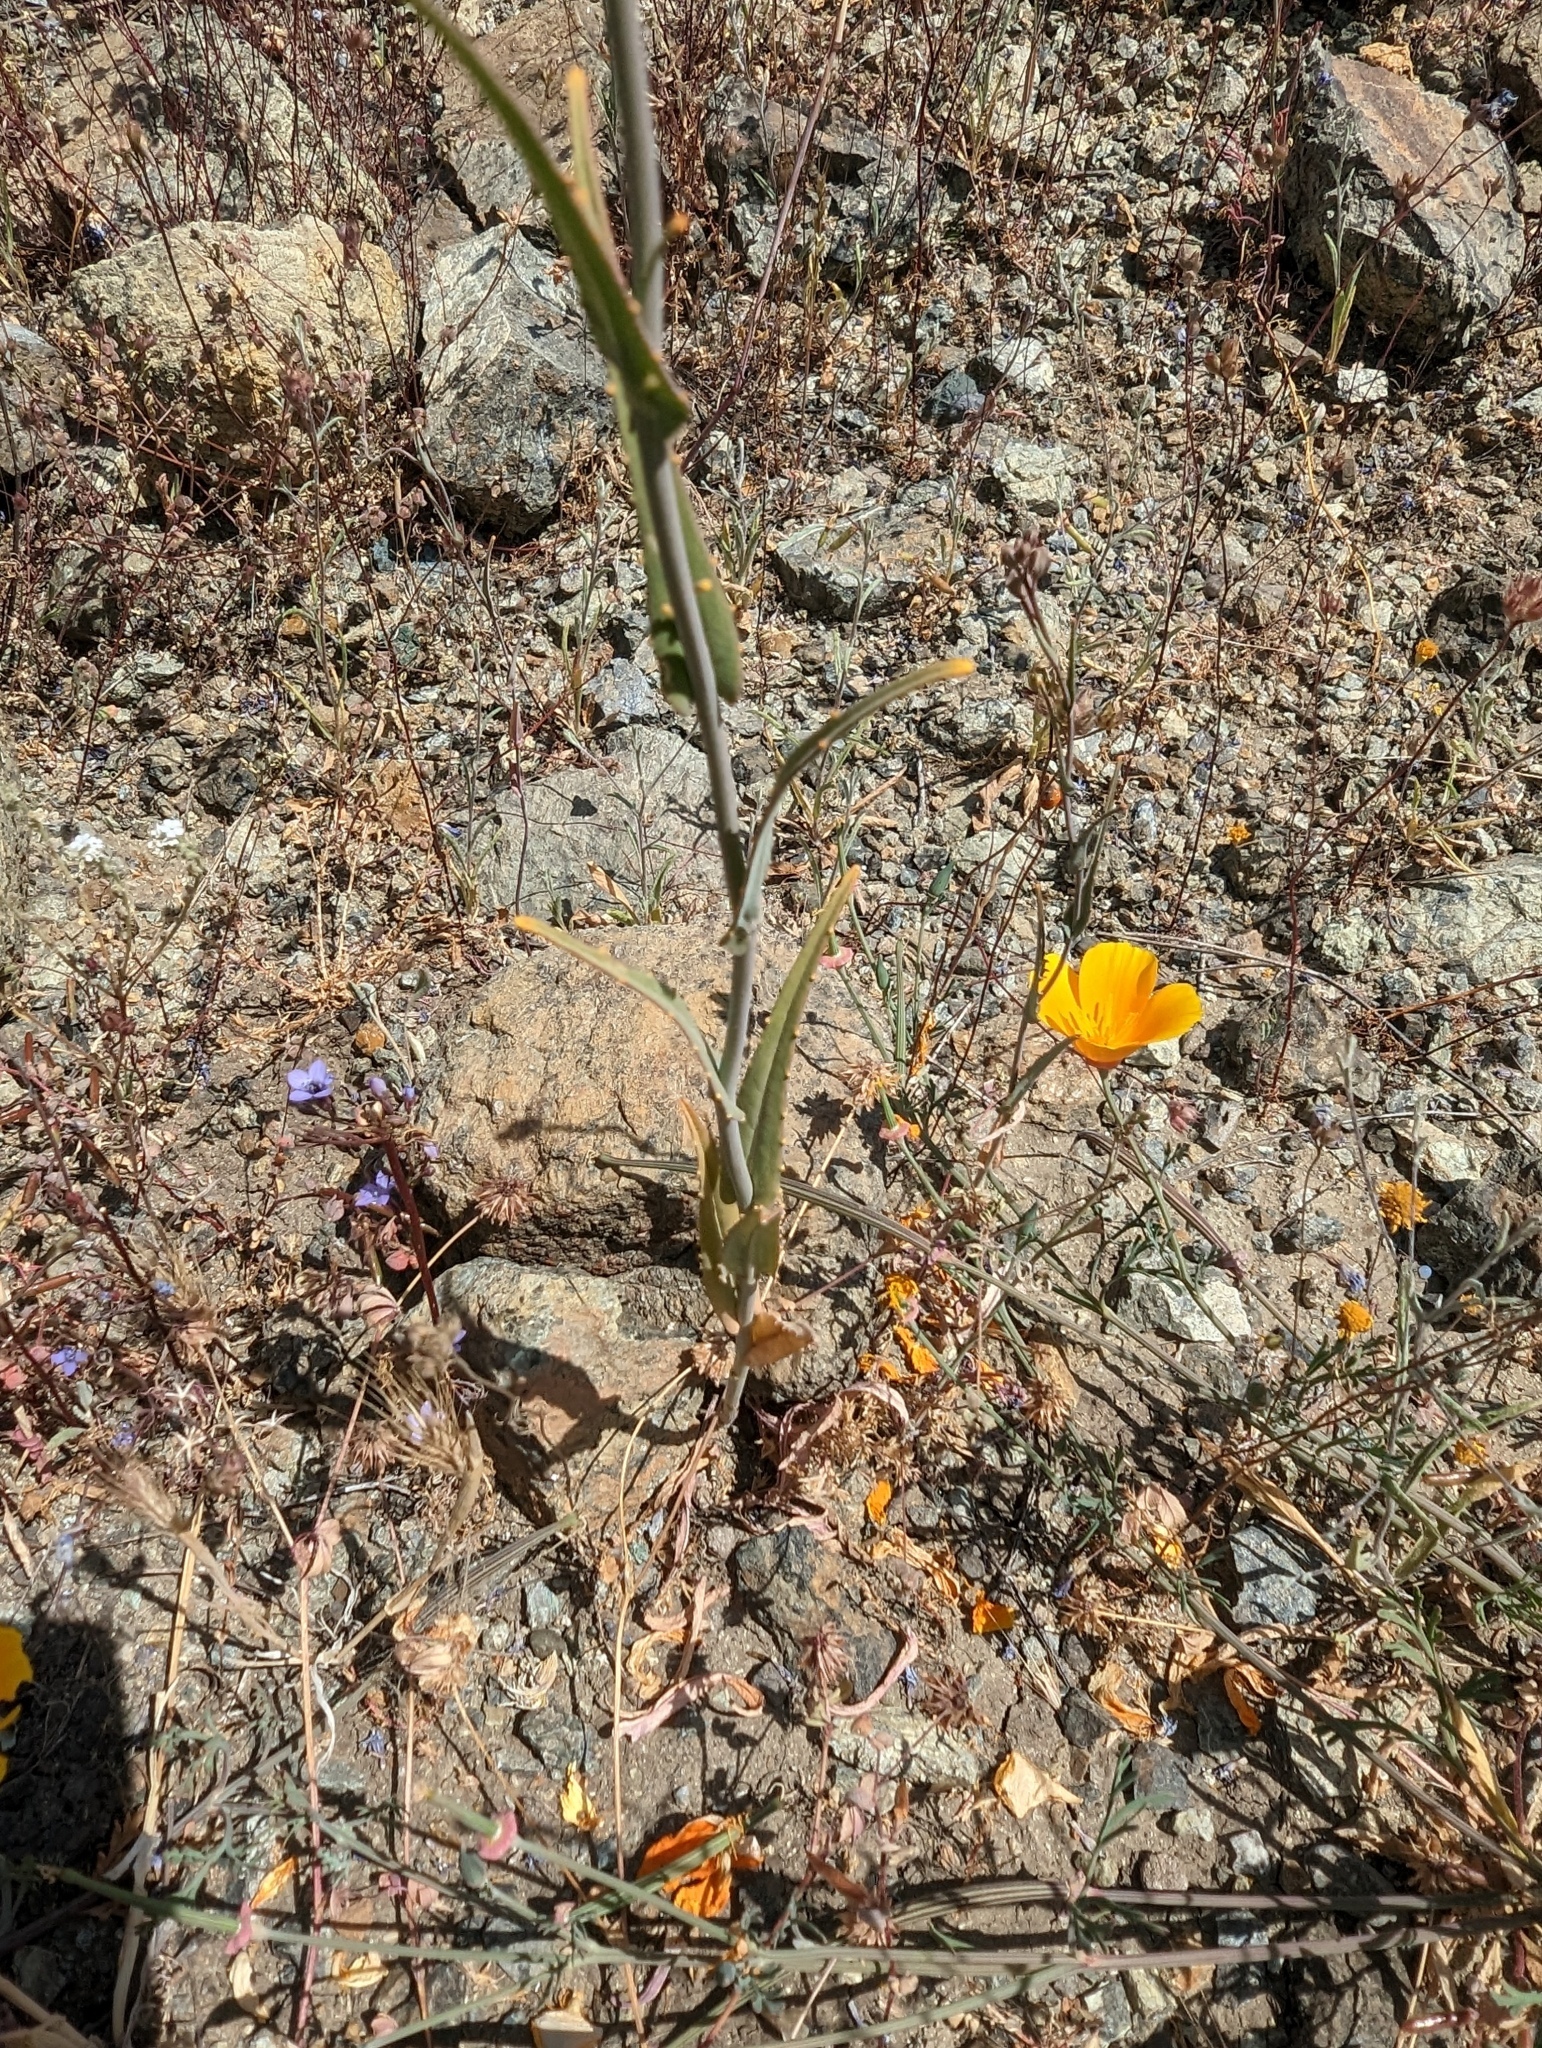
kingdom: Plantae
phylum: Tracheophyta
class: Magnoliopsida
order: Brassicales
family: Brassicaceae
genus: Streptanthus
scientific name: Streptanthus glandulosus
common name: Jewel-flower
